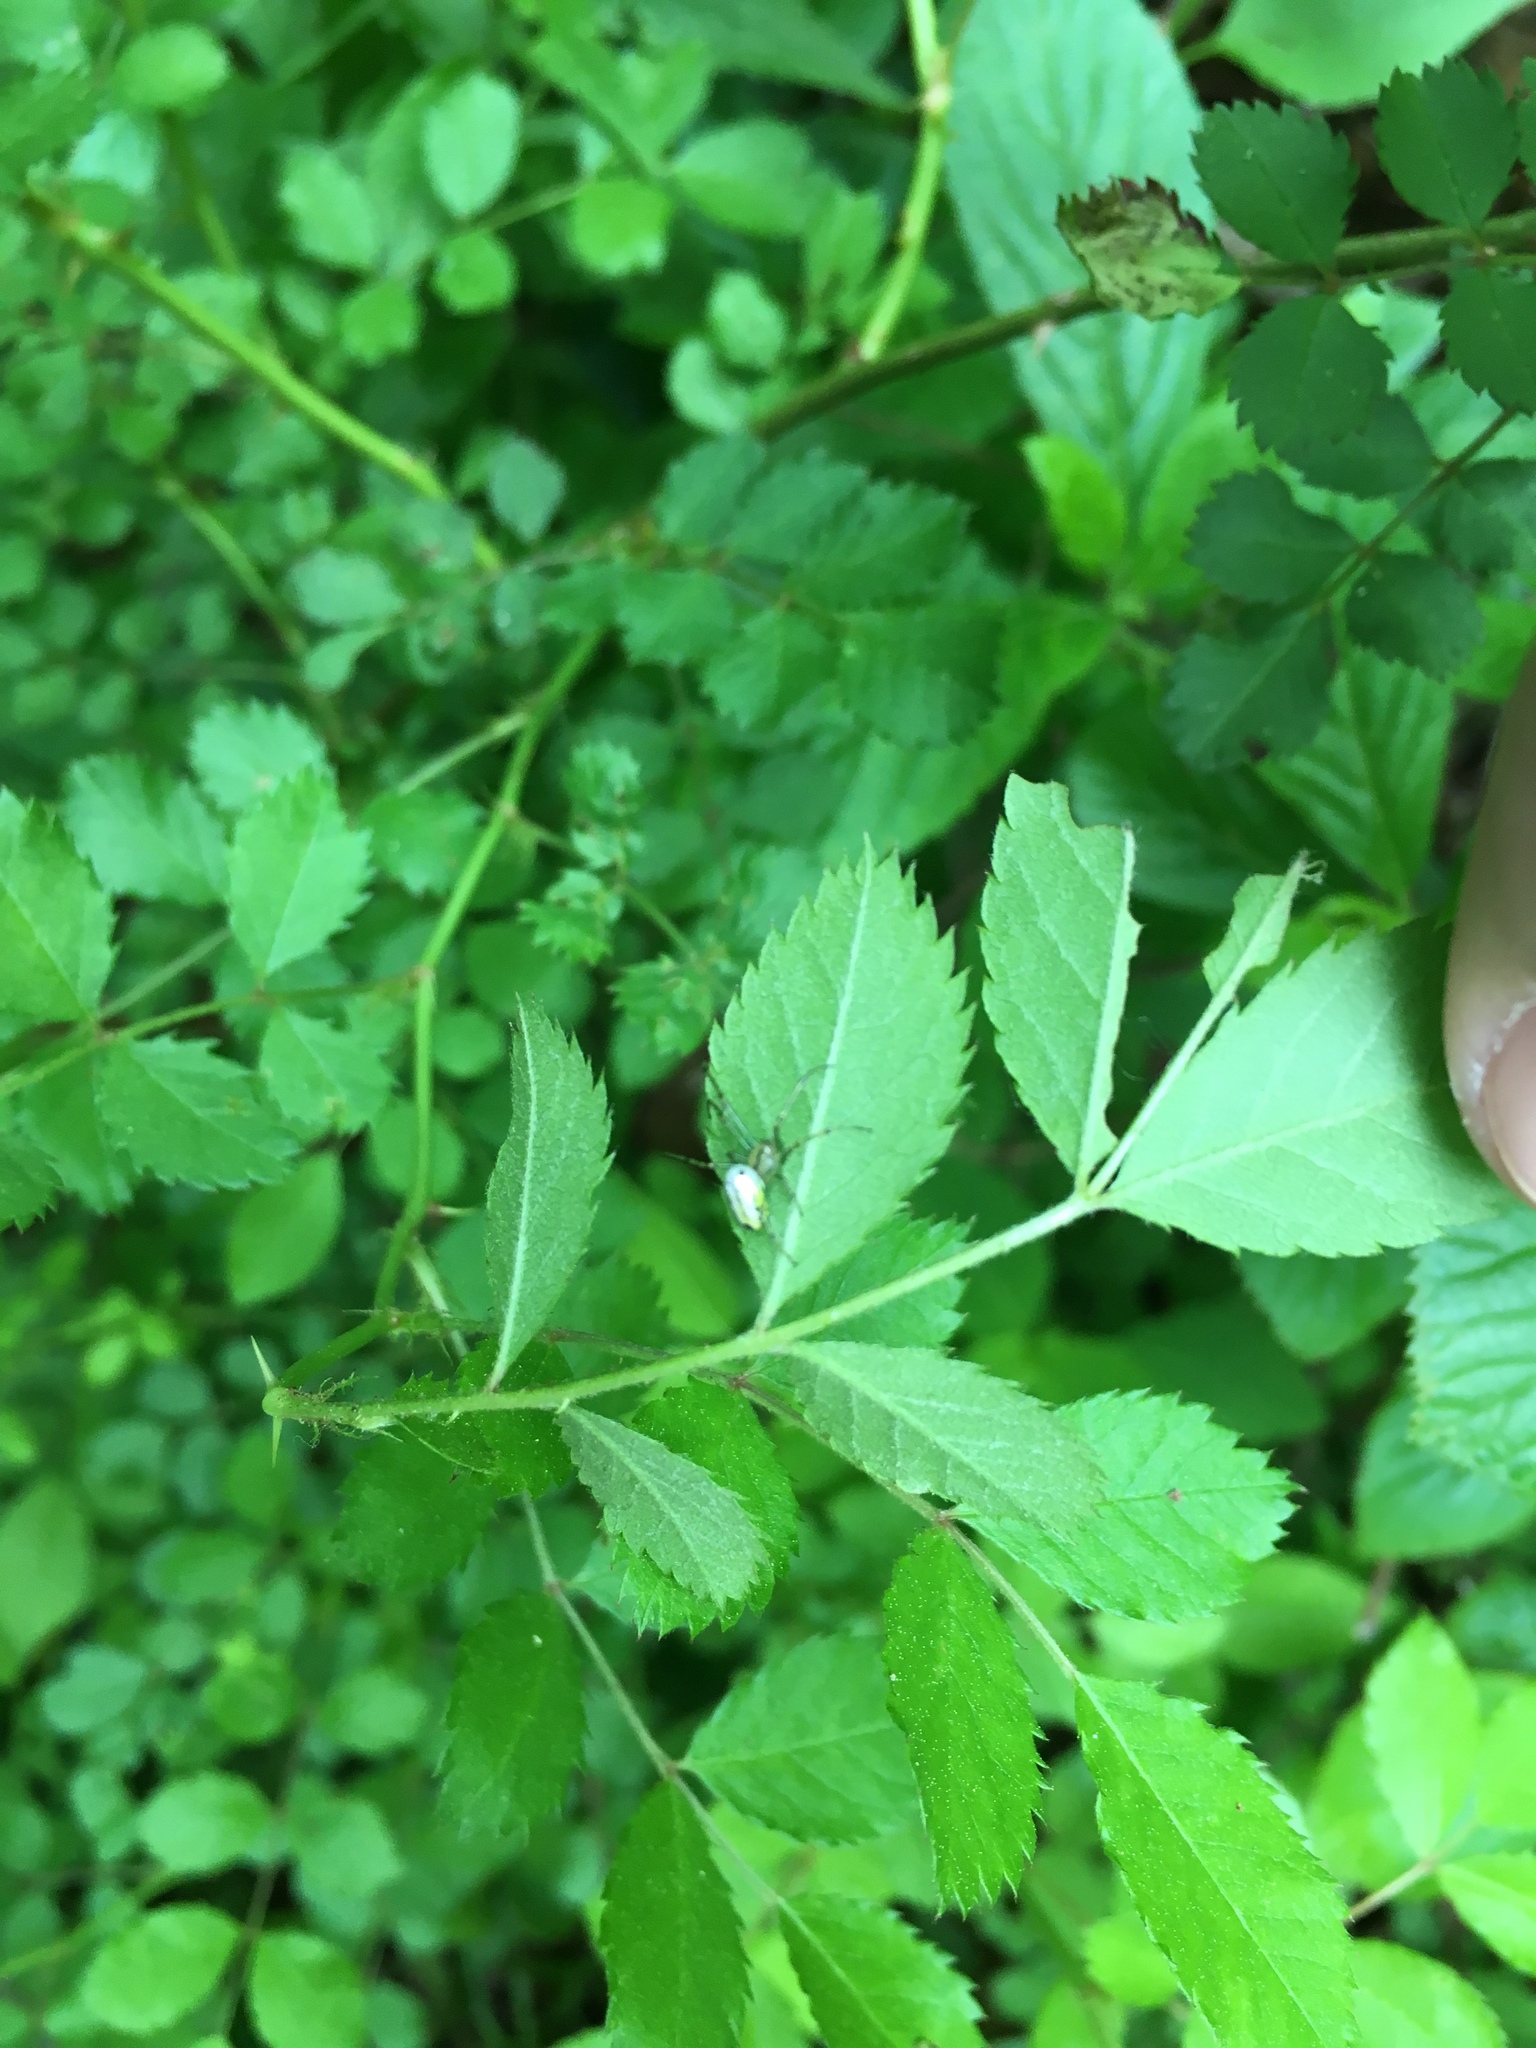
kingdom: Animalia
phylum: Arthropoda
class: Arachnida
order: Araneae
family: Tetragnathidae
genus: Leucauge
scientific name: Leucauge venusta
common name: Longjawed orb weavers
